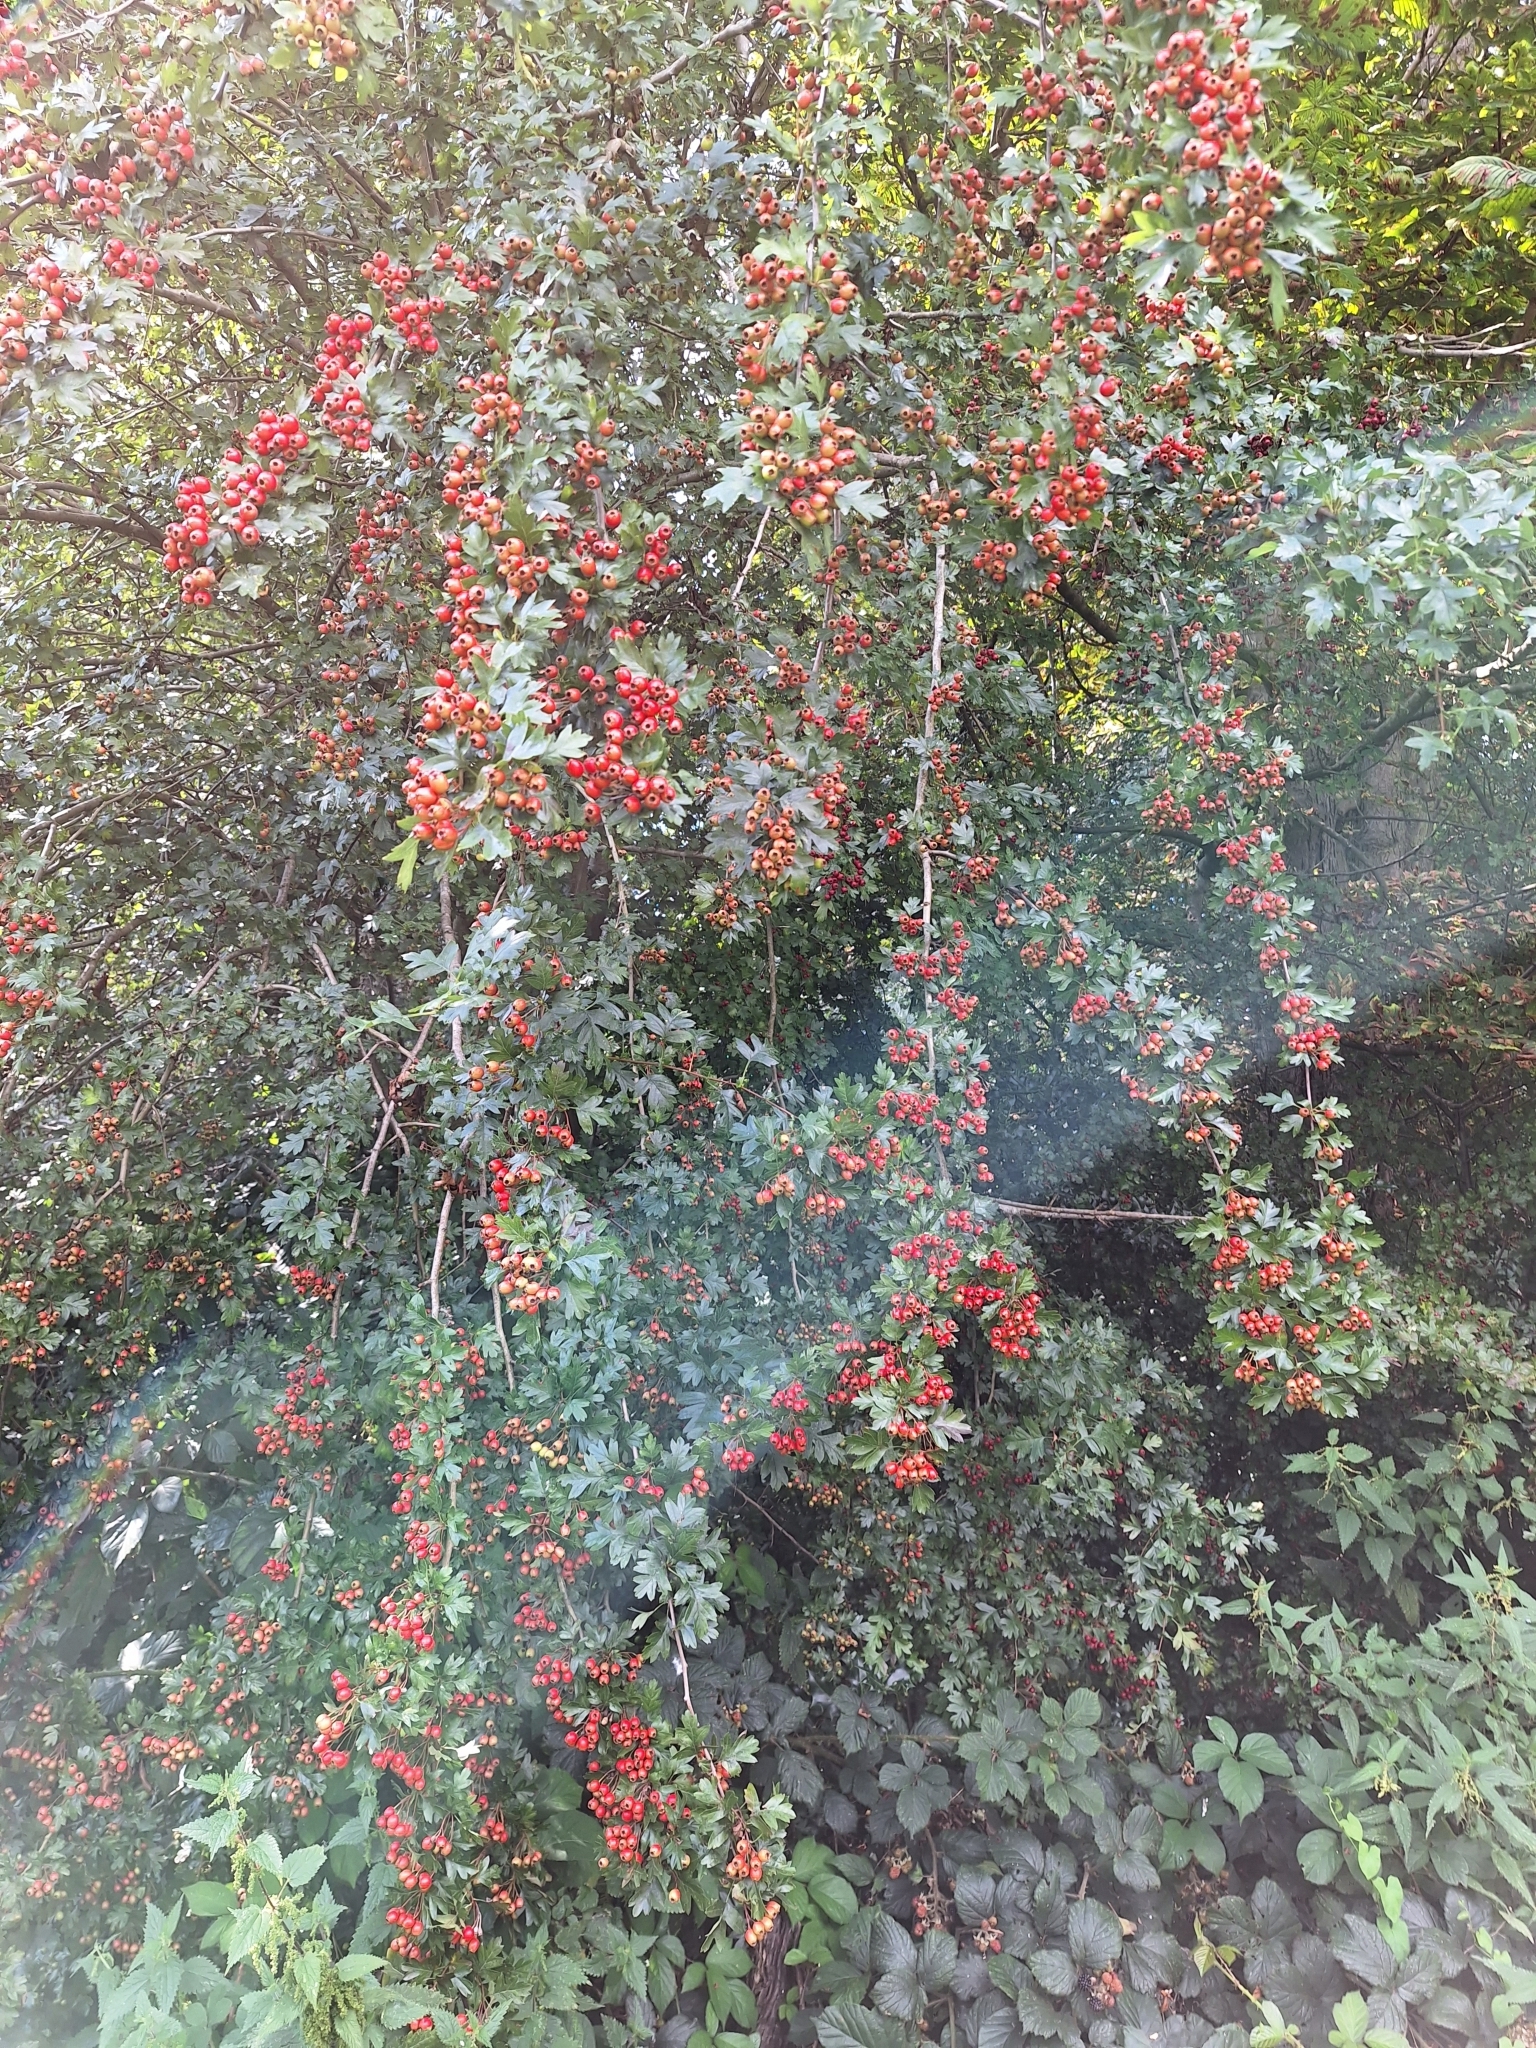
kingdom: Plantae
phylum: Tracheophyta
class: Magnoliopsida
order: Rosales
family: Rosaceae
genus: Crataegus
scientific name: Crataegus monogyna
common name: Hawthorn
